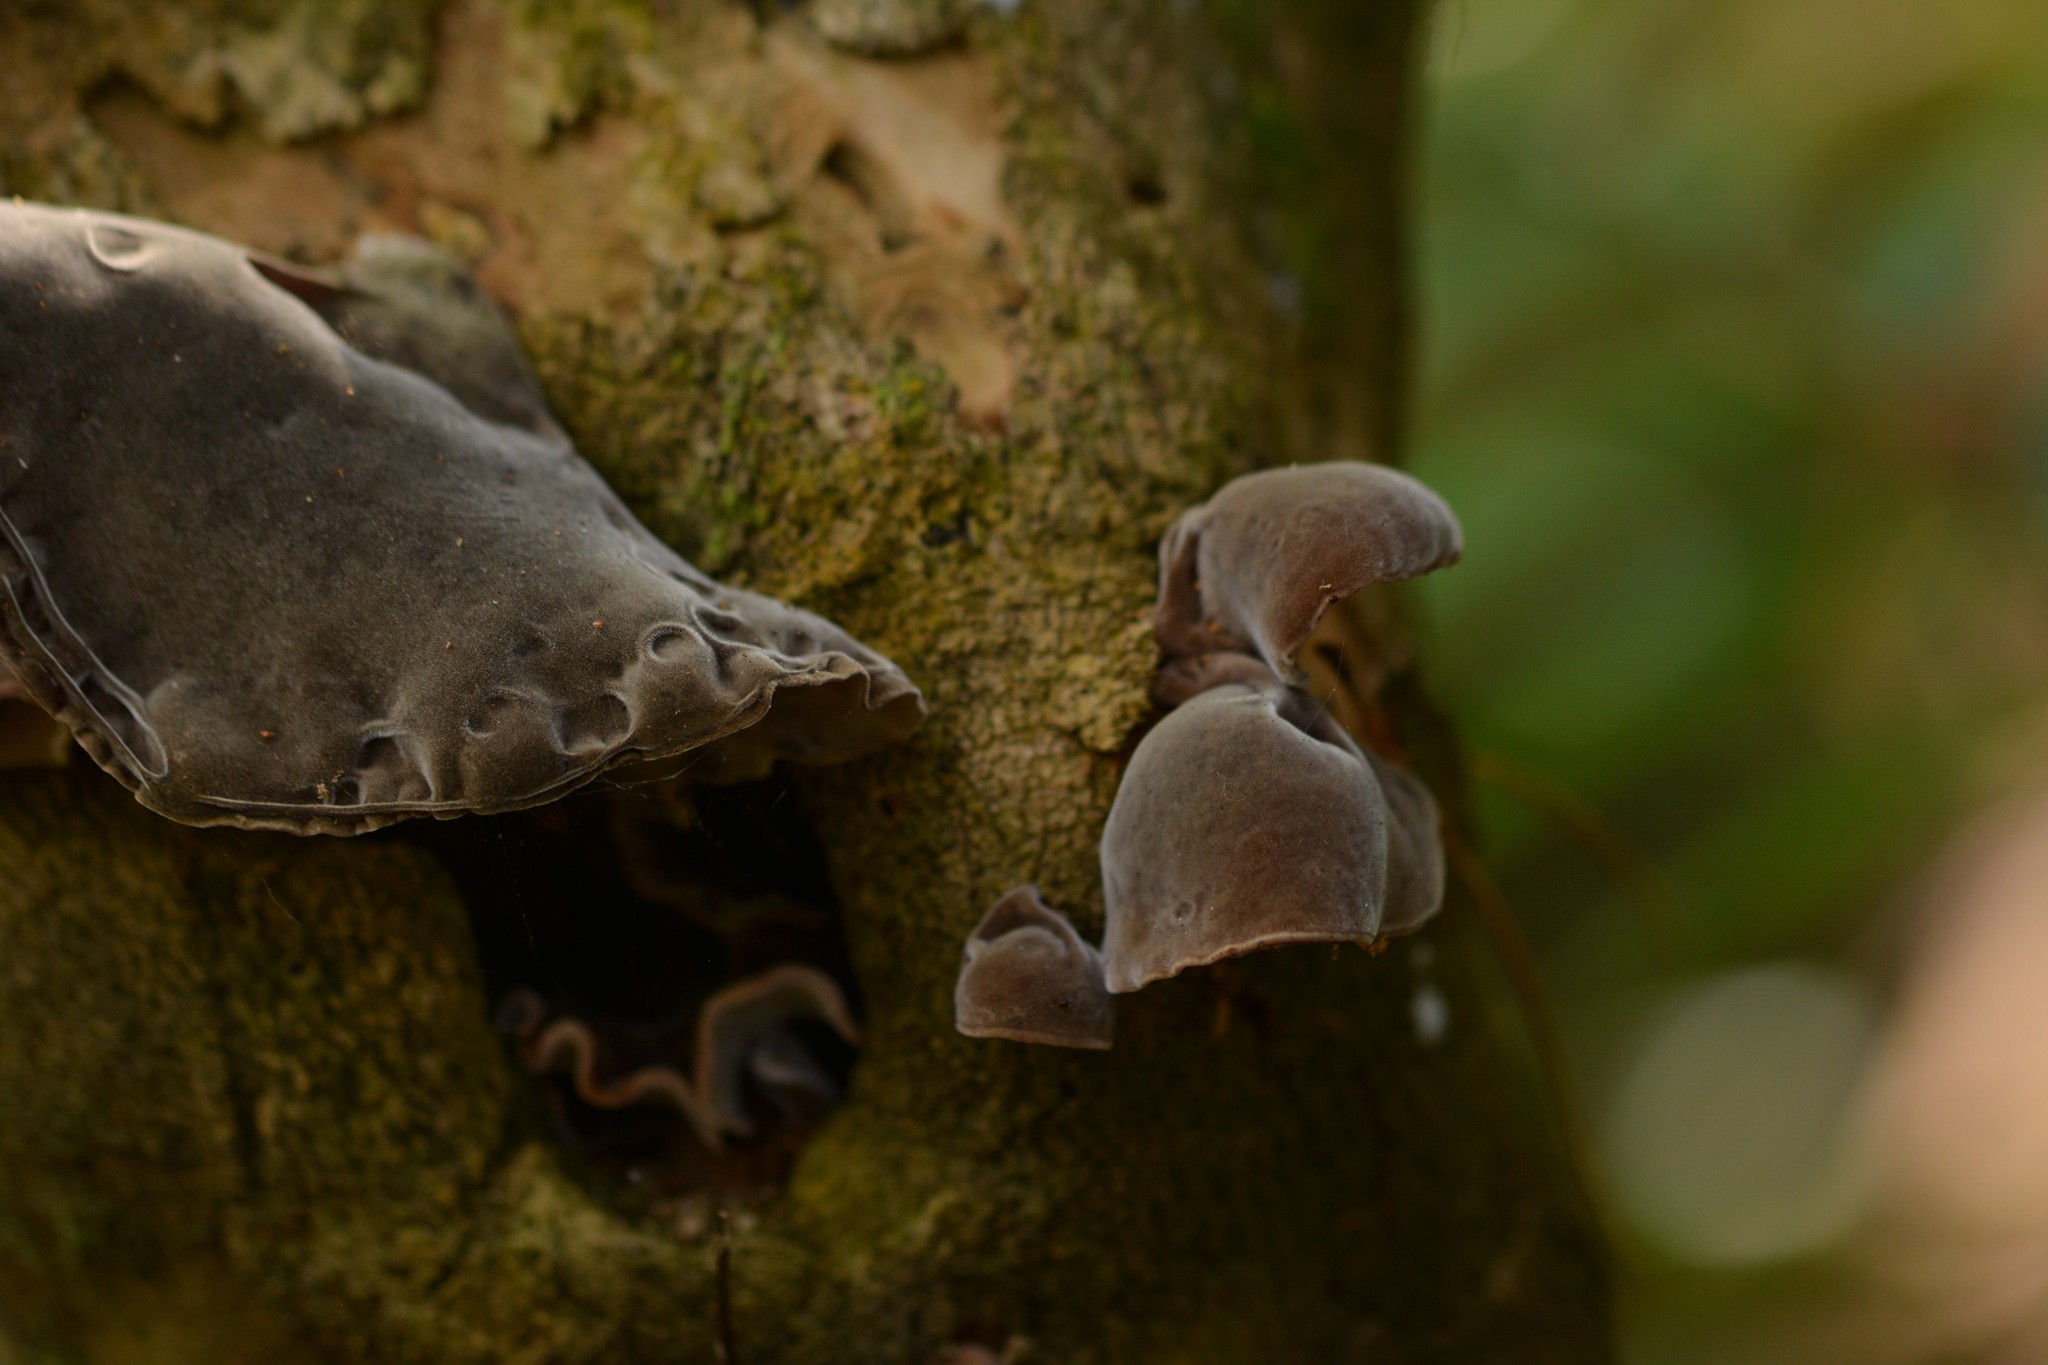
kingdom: Fungi
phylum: Basidiomycota
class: Agaricomycetes
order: Auriculariales
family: Auriculariaceae
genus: Auricularia
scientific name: Auricularia cornea
